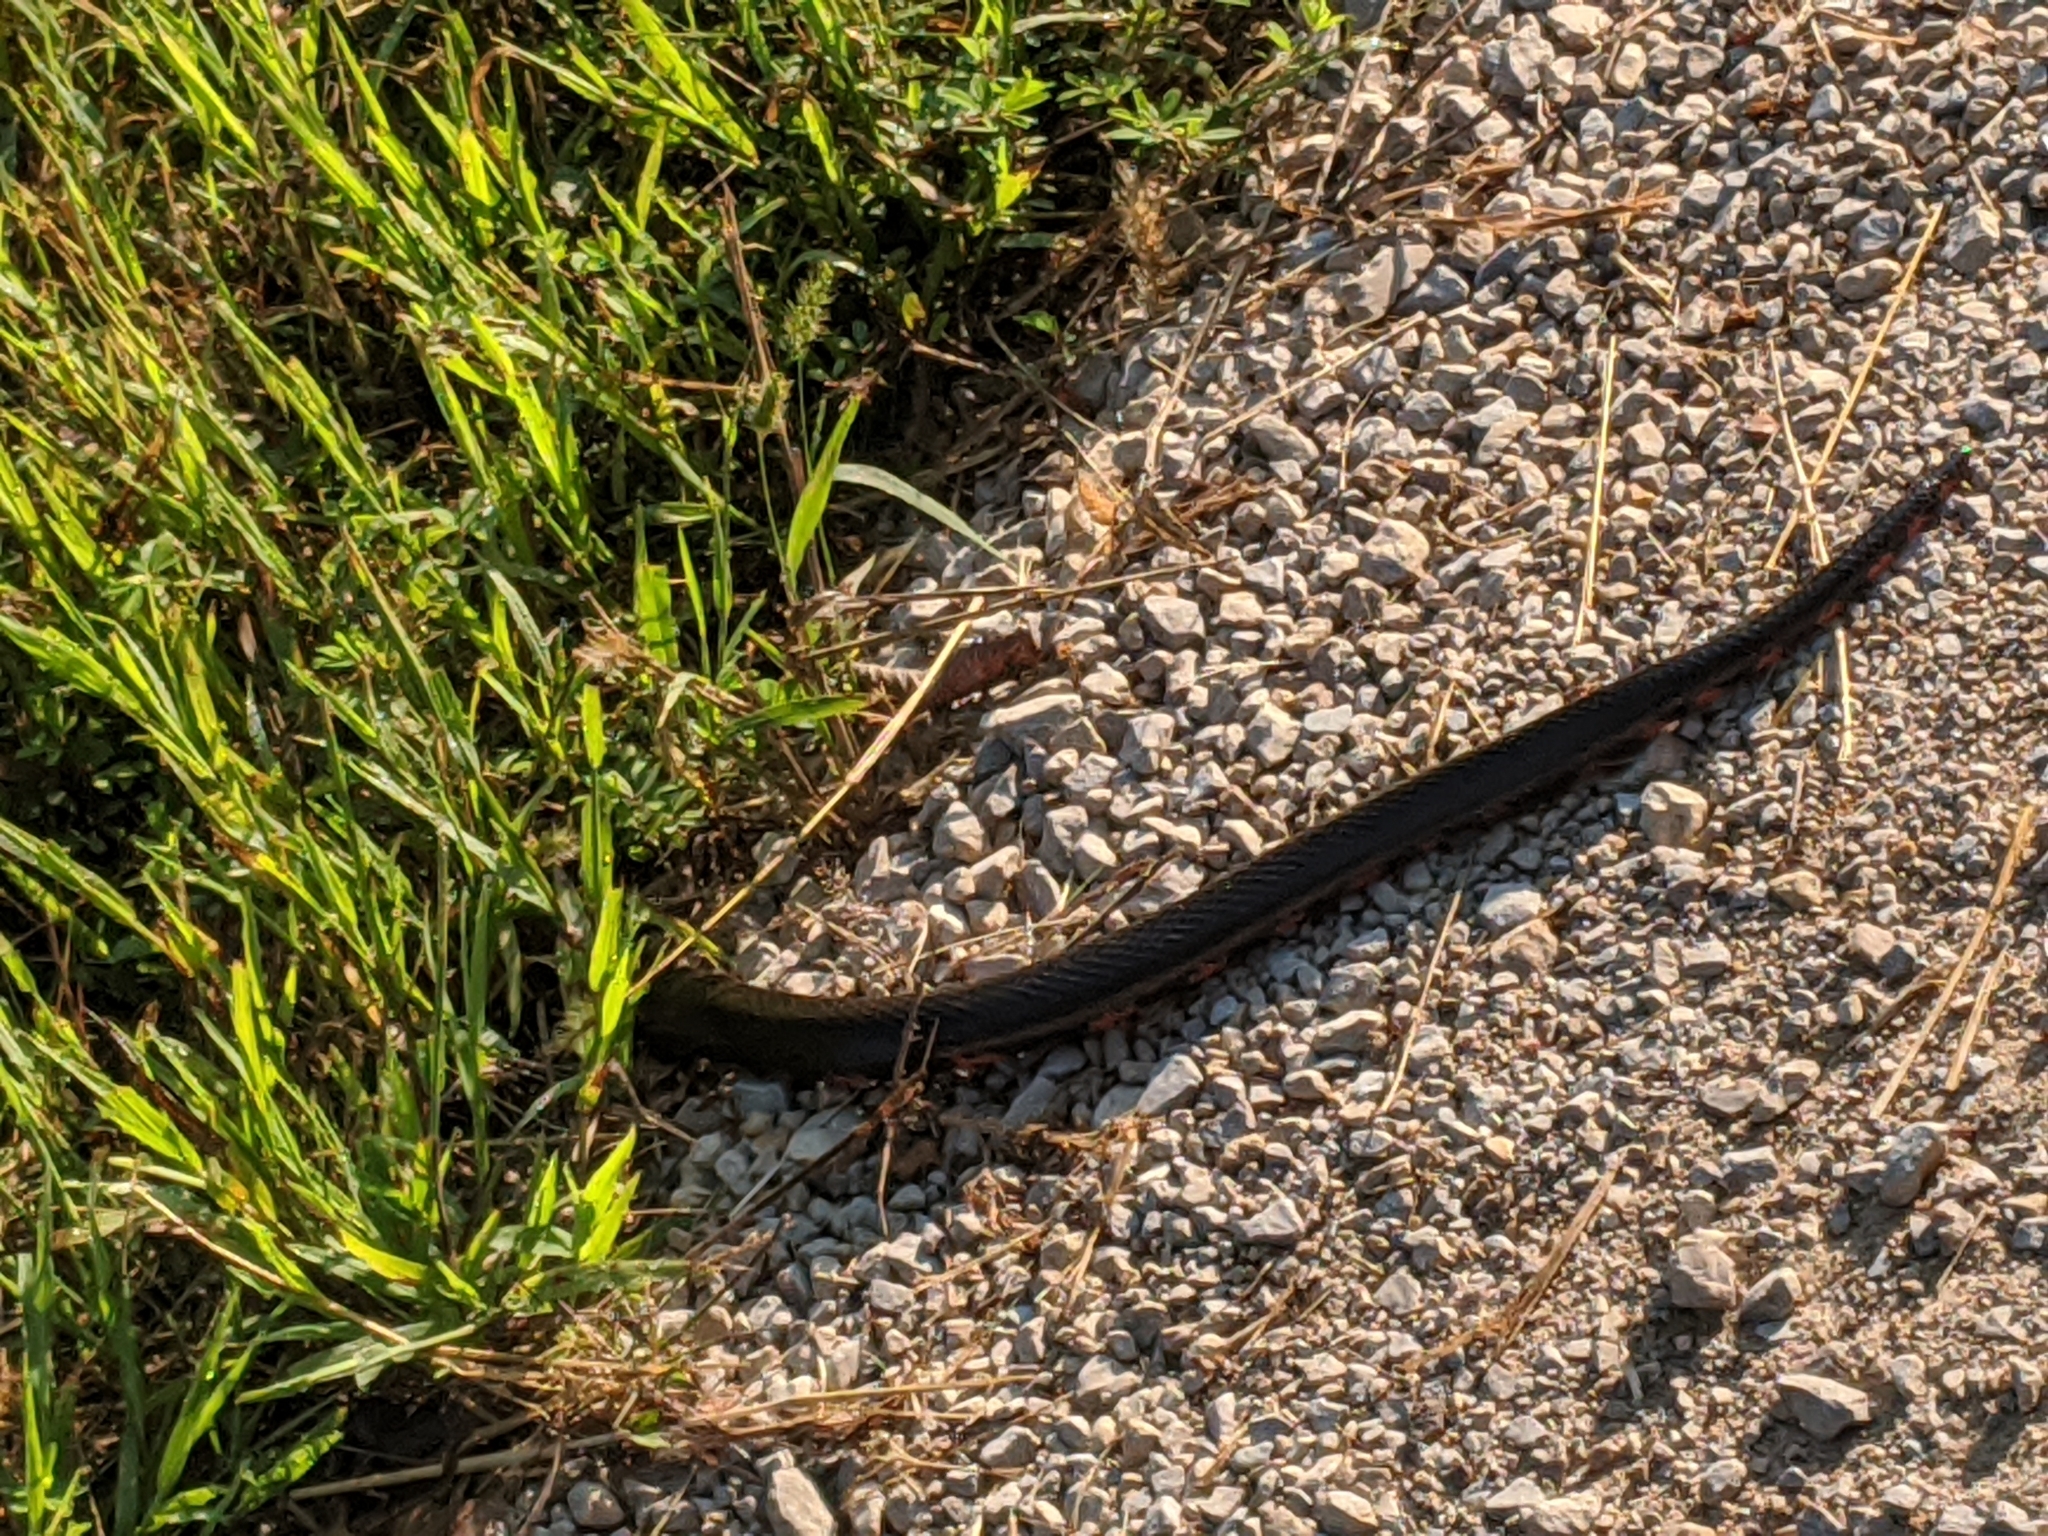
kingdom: Animalia
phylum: Chordata
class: Squamata
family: Colubridae
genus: Farancia
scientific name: Farancia abacura
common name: Mud snake
